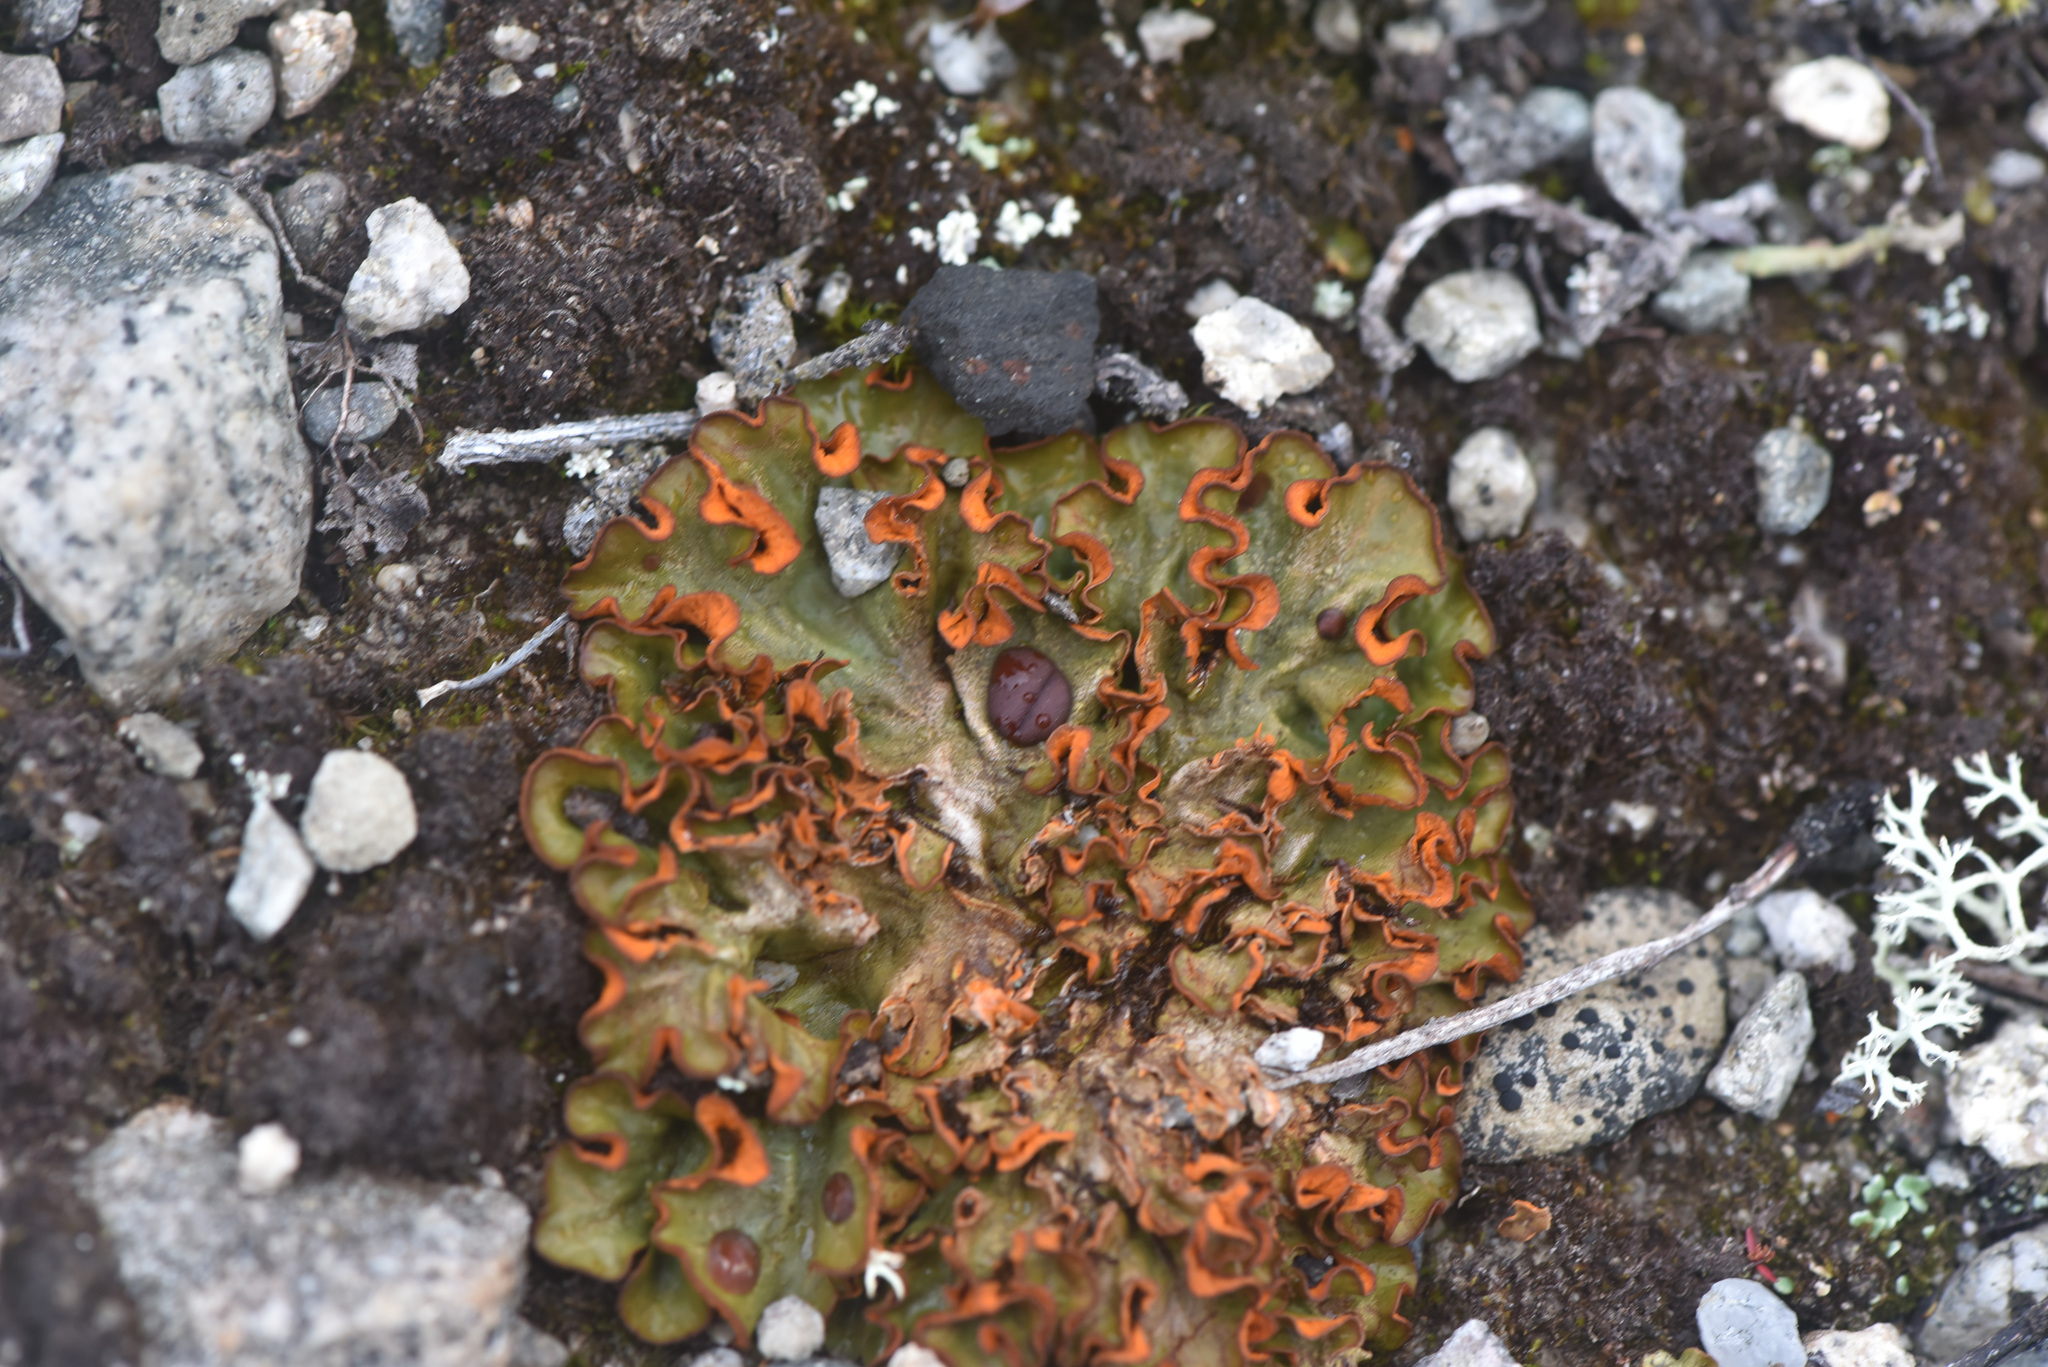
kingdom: Fungi
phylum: Ascomycota
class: Lecanoromycetes
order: Peltigerales
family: Peltigeraceae
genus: Solorina
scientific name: Solorina crocea
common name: Mountain saffron
